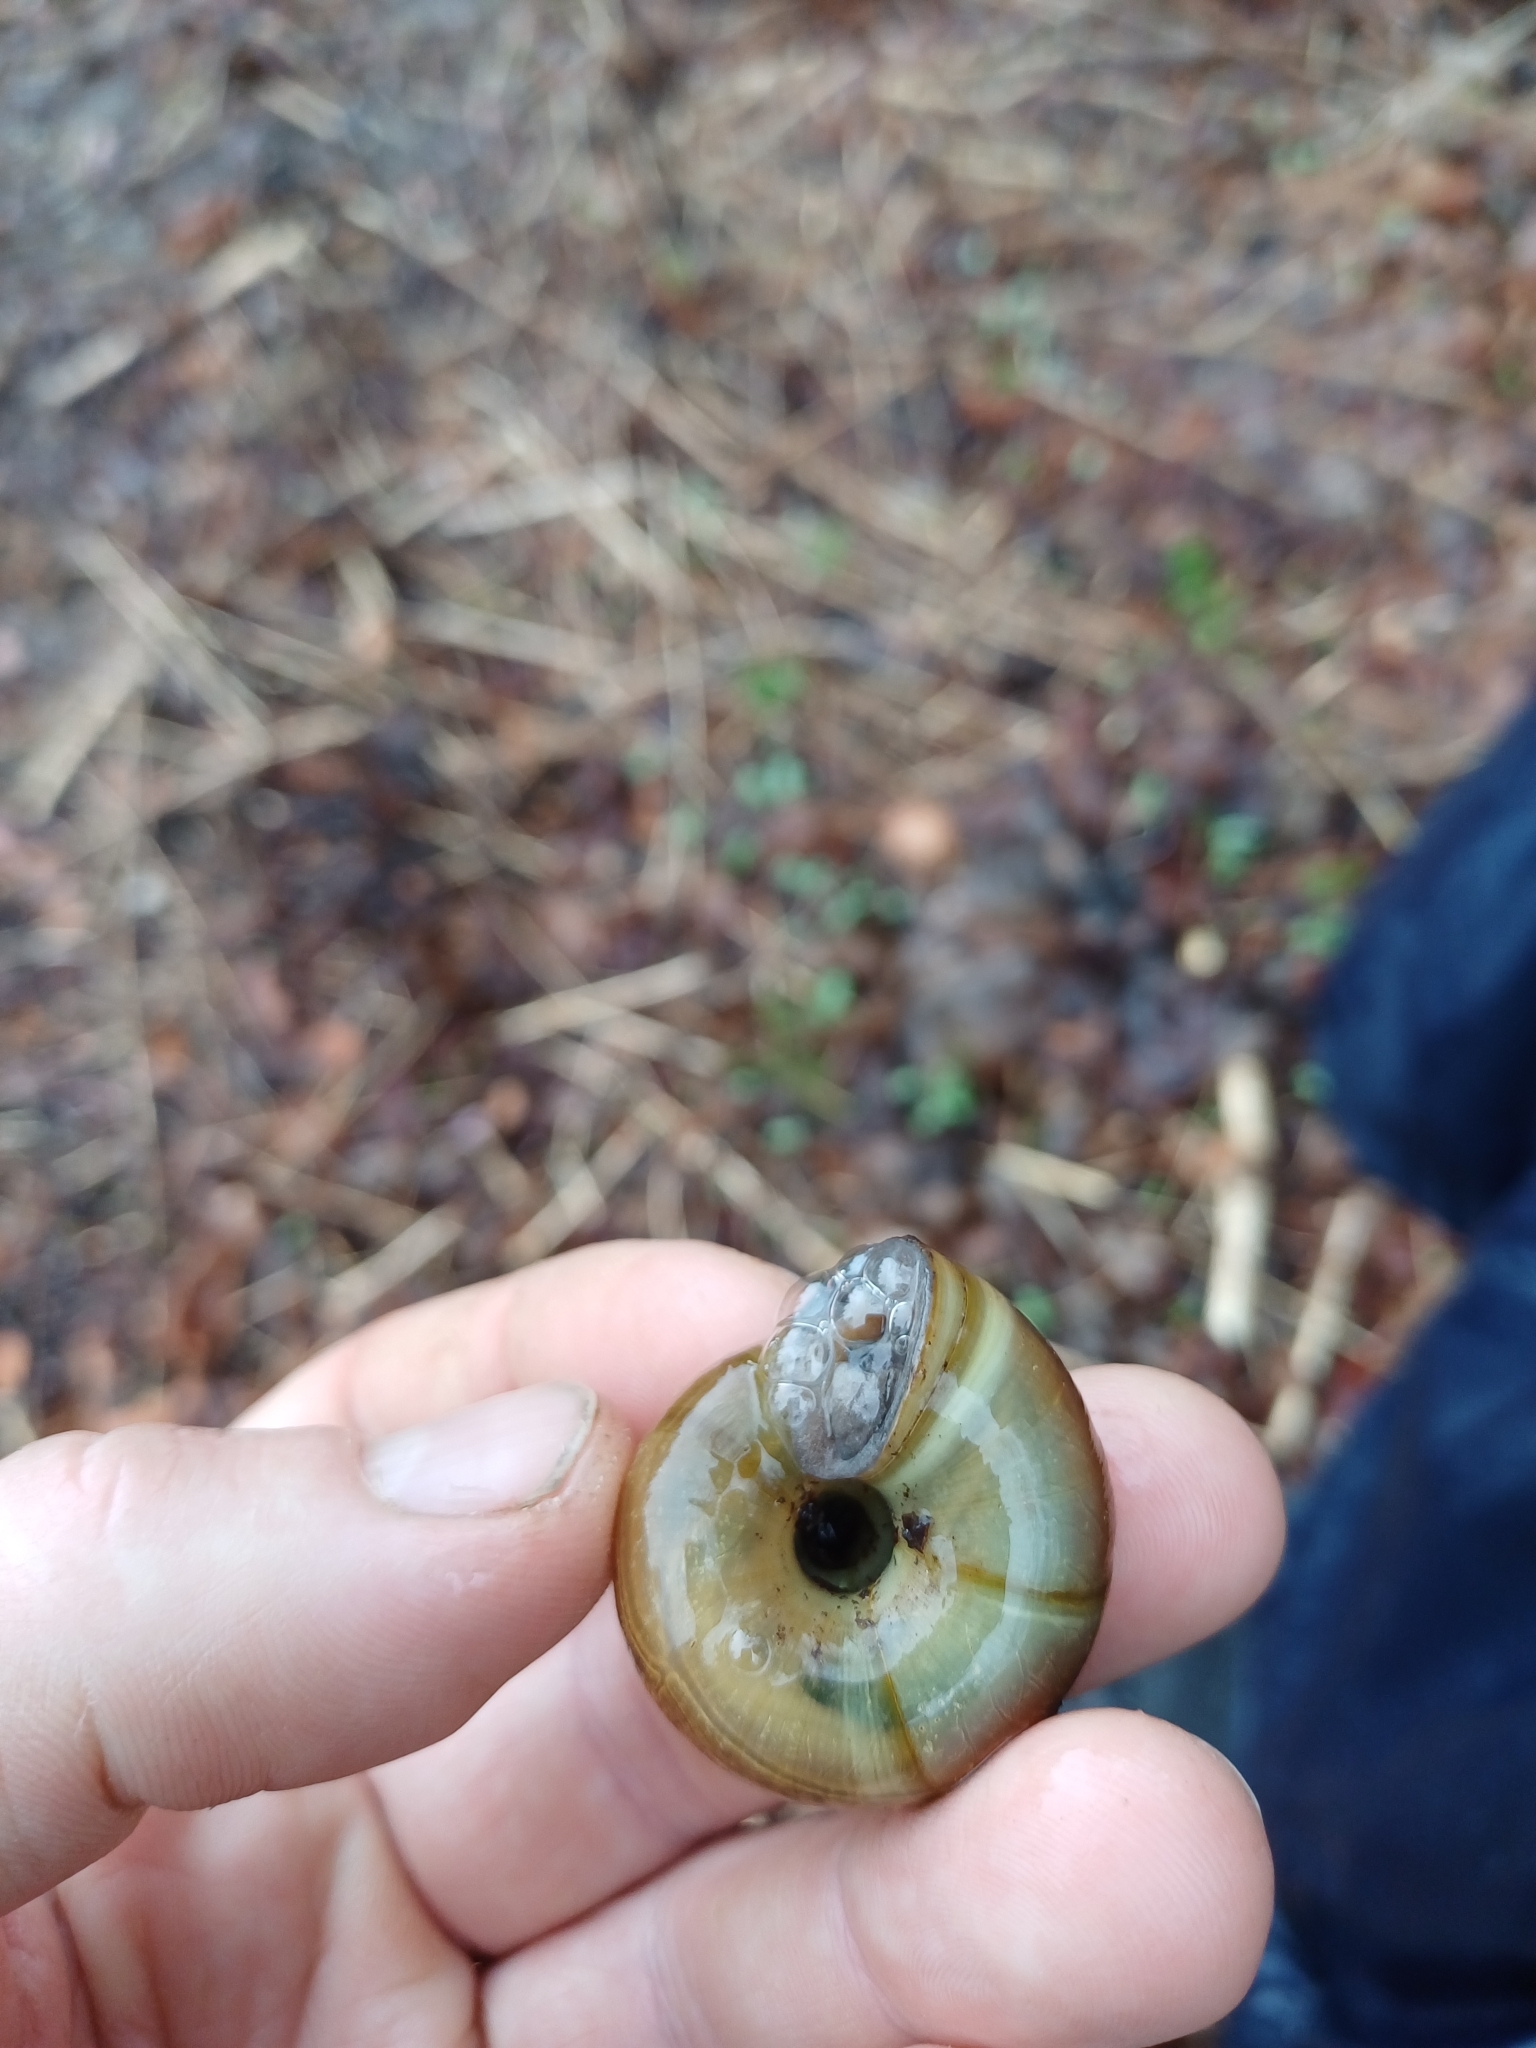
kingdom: Animalia
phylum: Mollusca
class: Gastropoda
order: Stylommatophora
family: Zonitidae
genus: Aegopis
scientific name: Aegopis verticillus
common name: Giant glass snail
